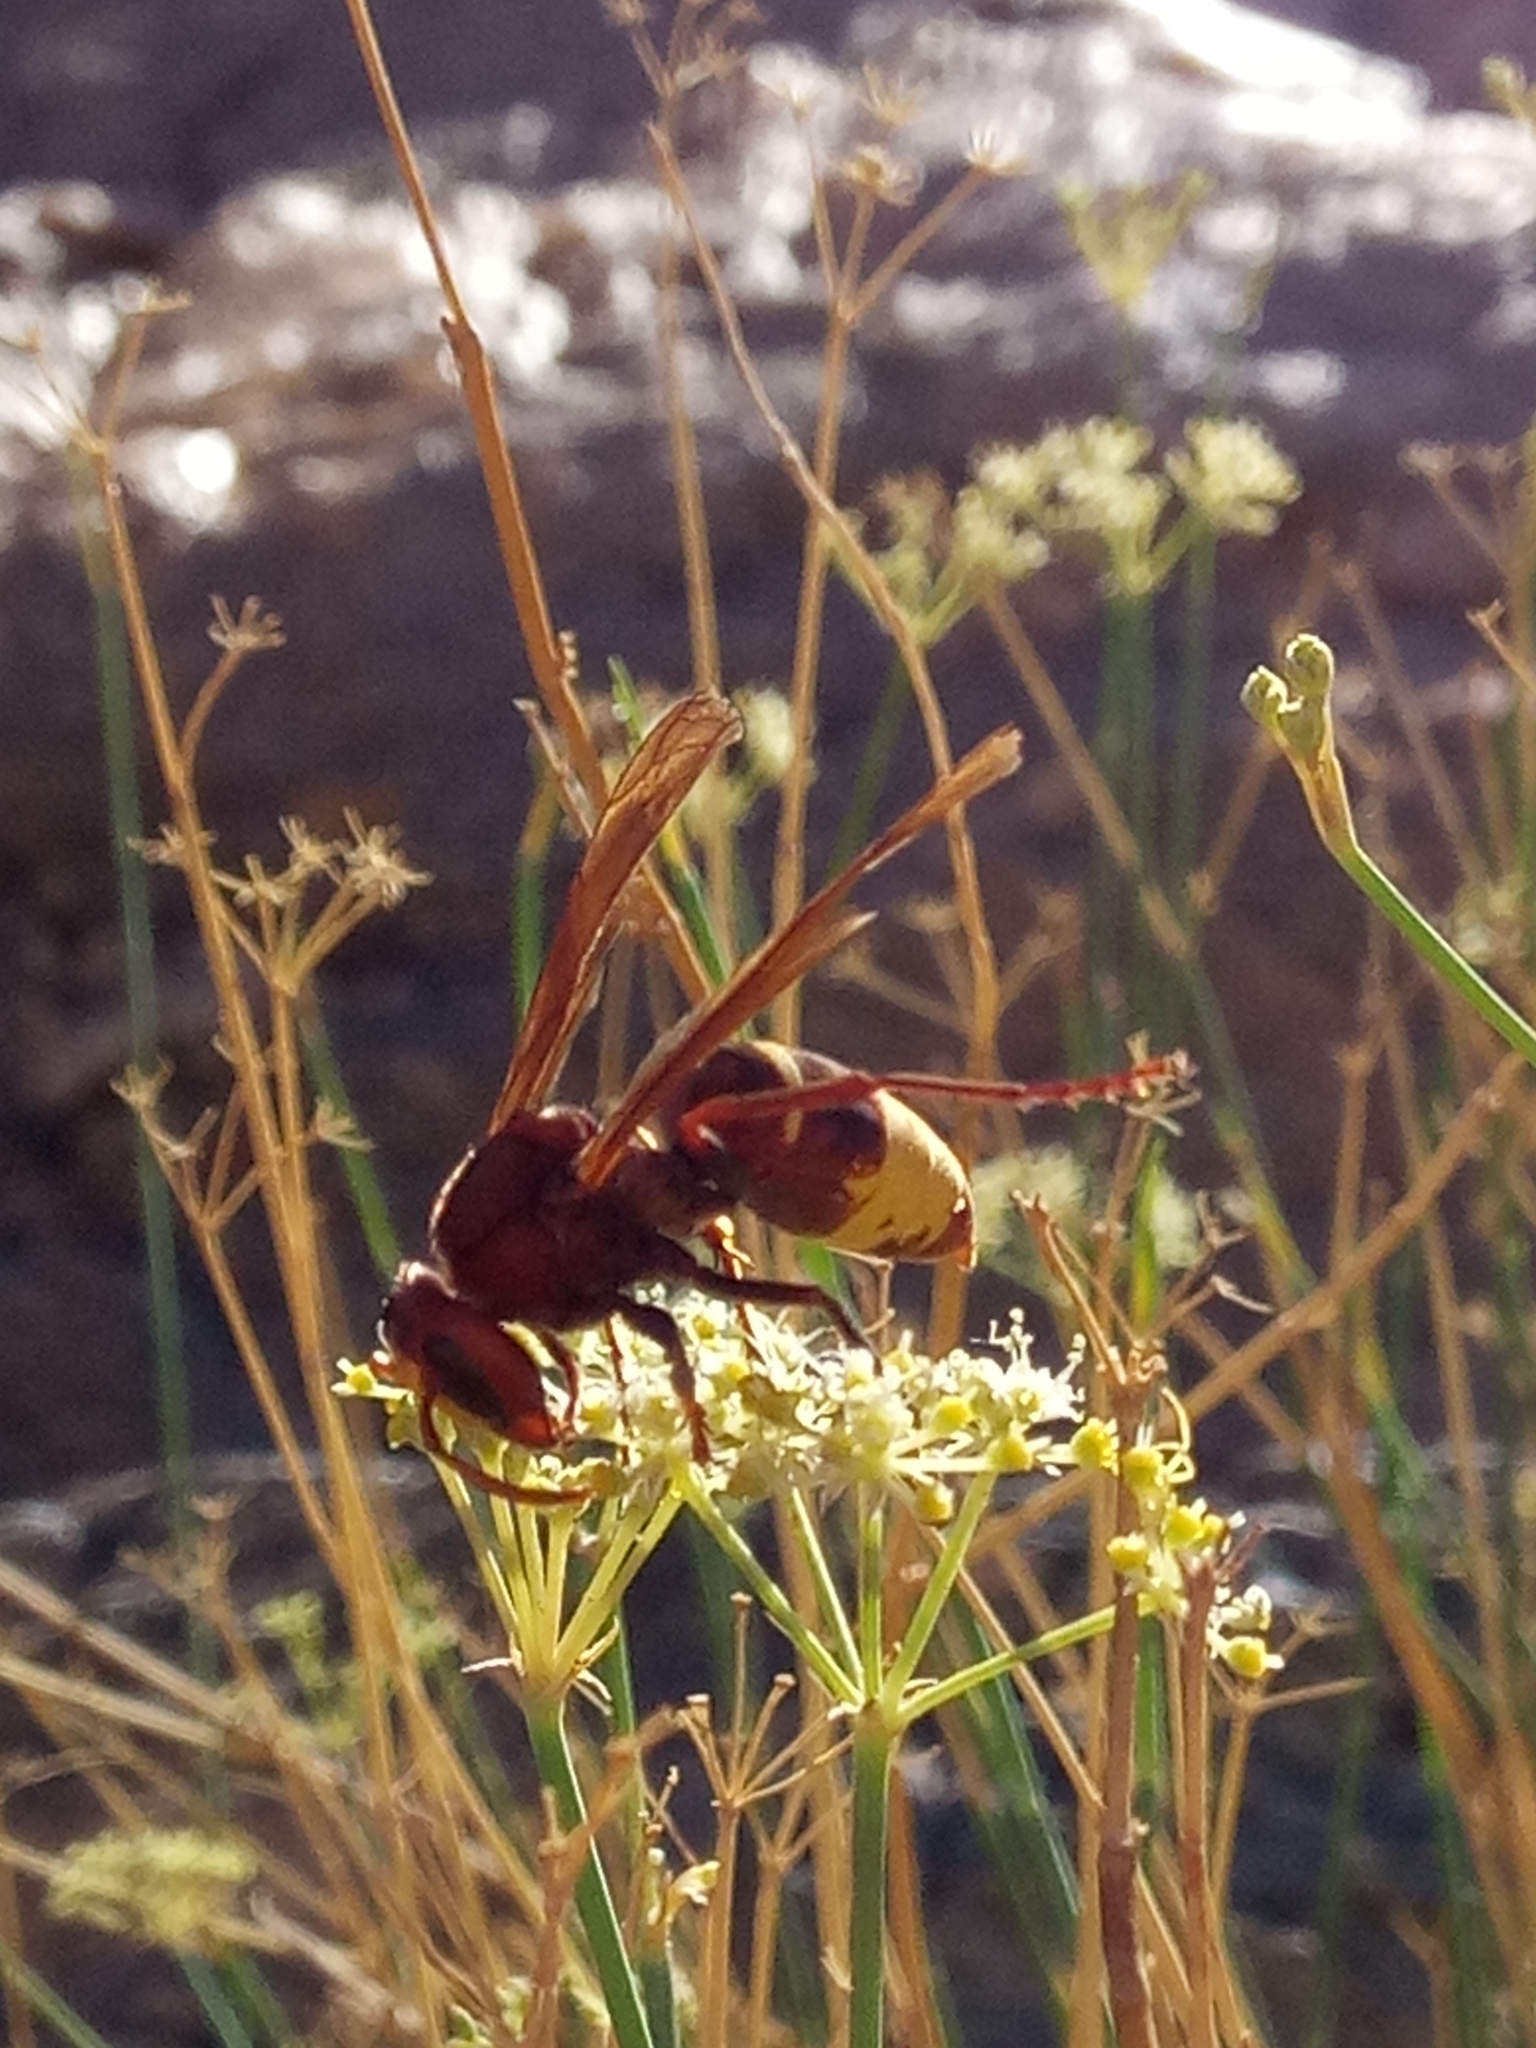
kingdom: Animalia
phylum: Arthropoda
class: Insecta
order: Hymenoptera
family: Vespidae
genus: Vespa
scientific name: Vespa orientalis
